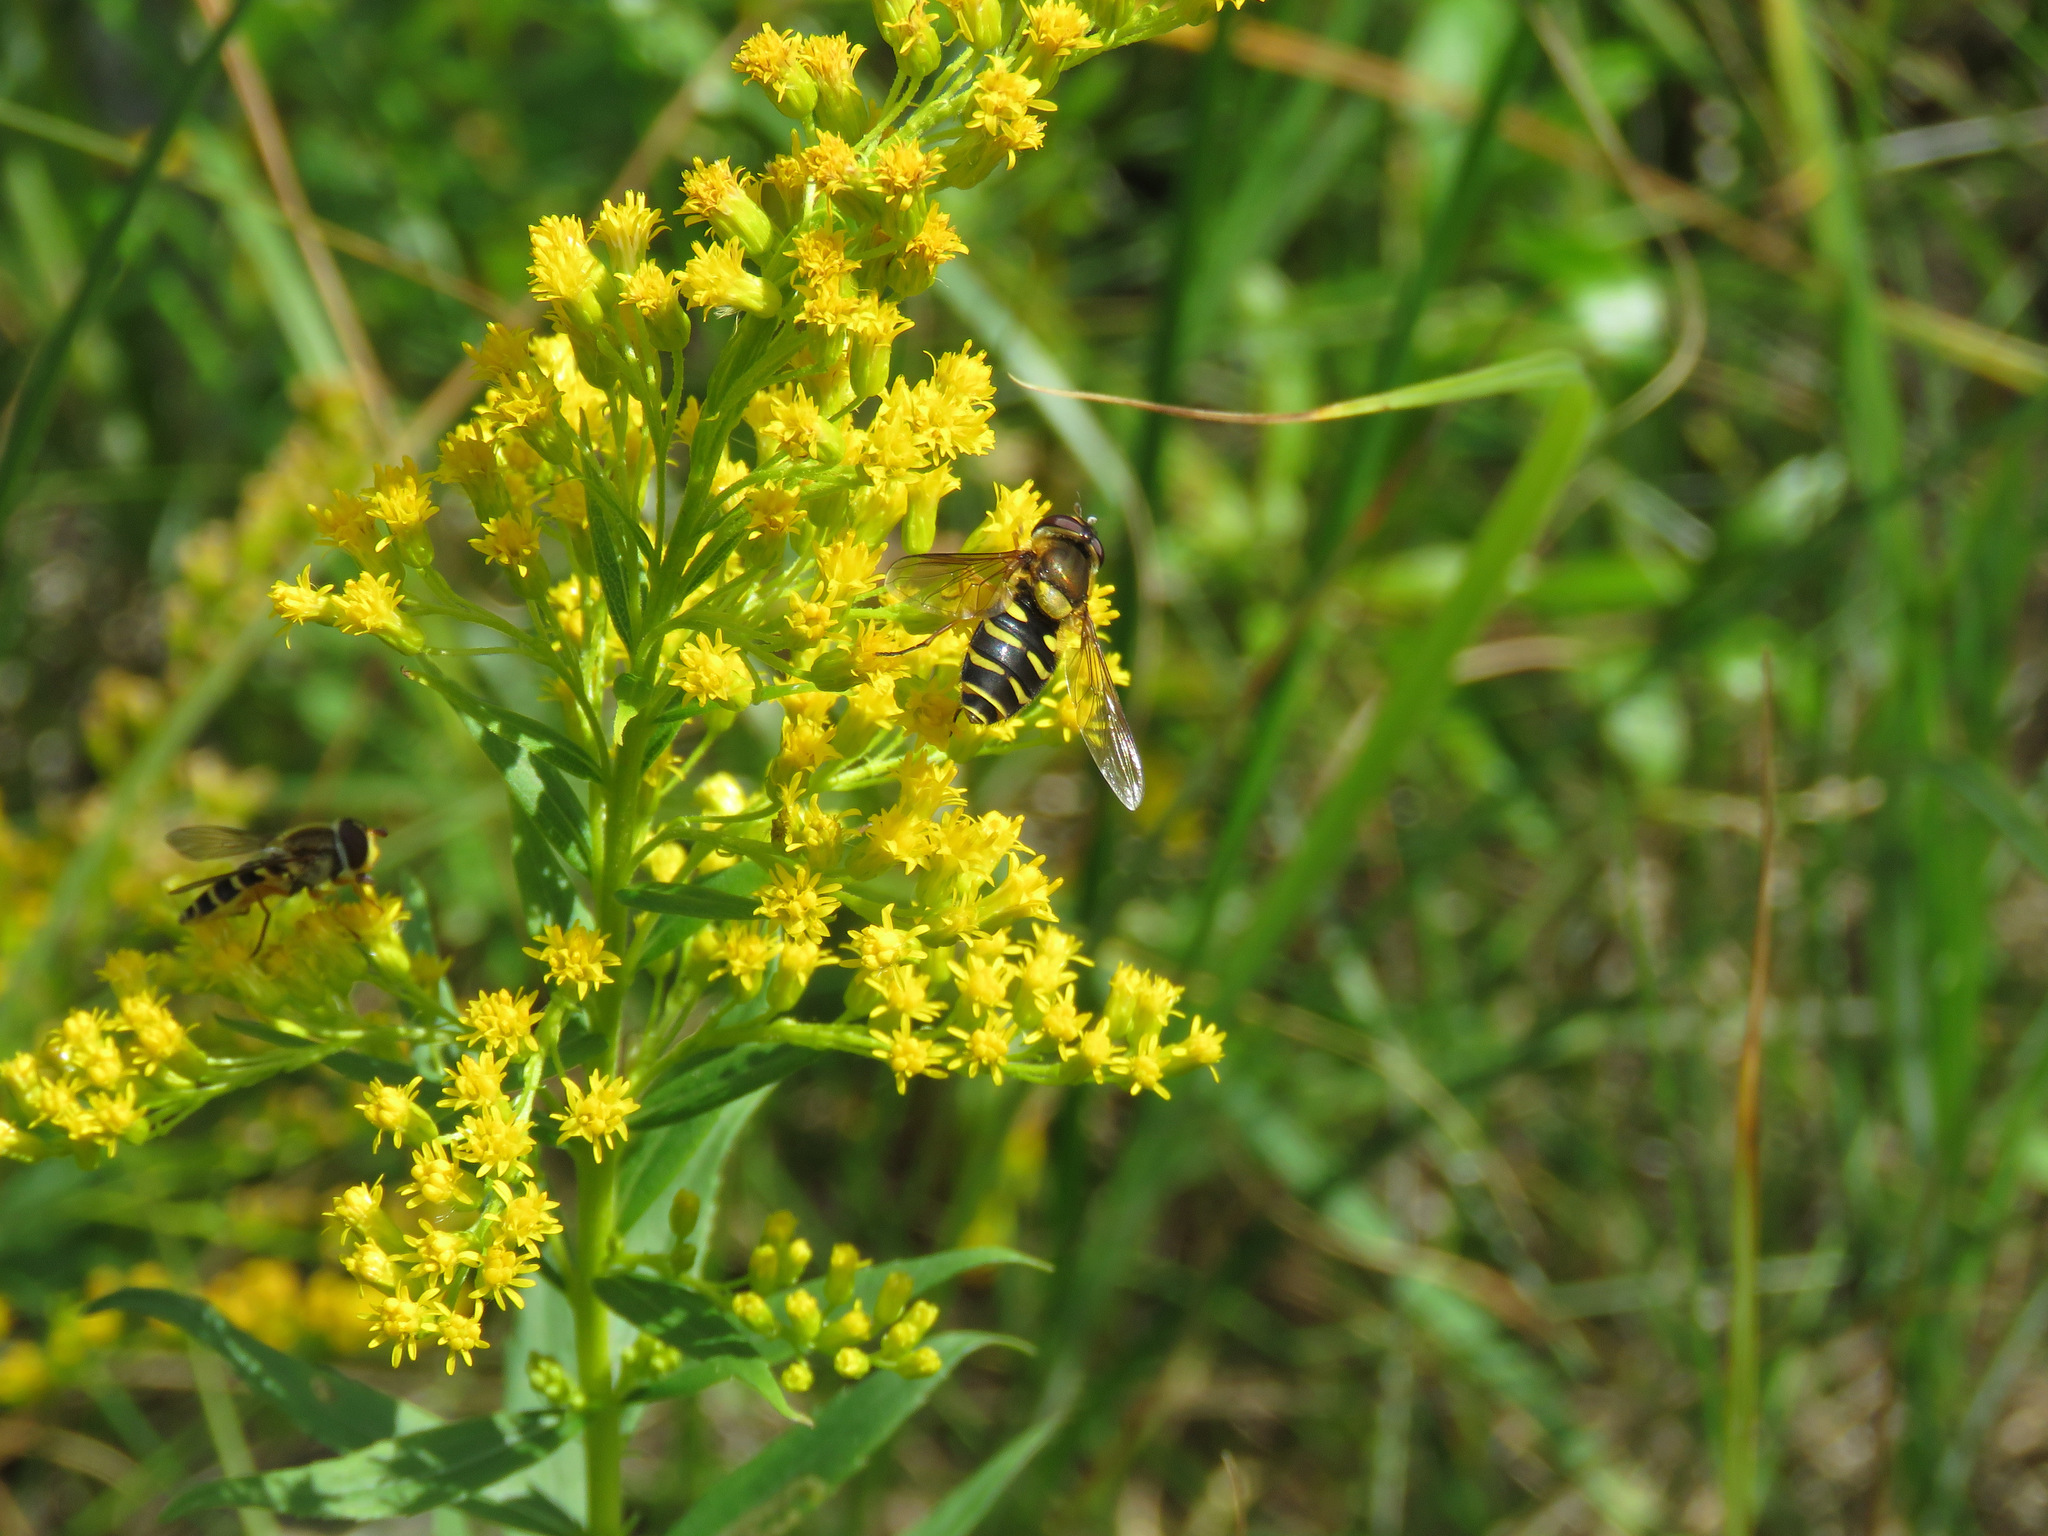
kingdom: Animalia
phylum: Arthropoda
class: Insecta
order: Diptera
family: Syrphidae
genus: Syrphus
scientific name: Syrphus
